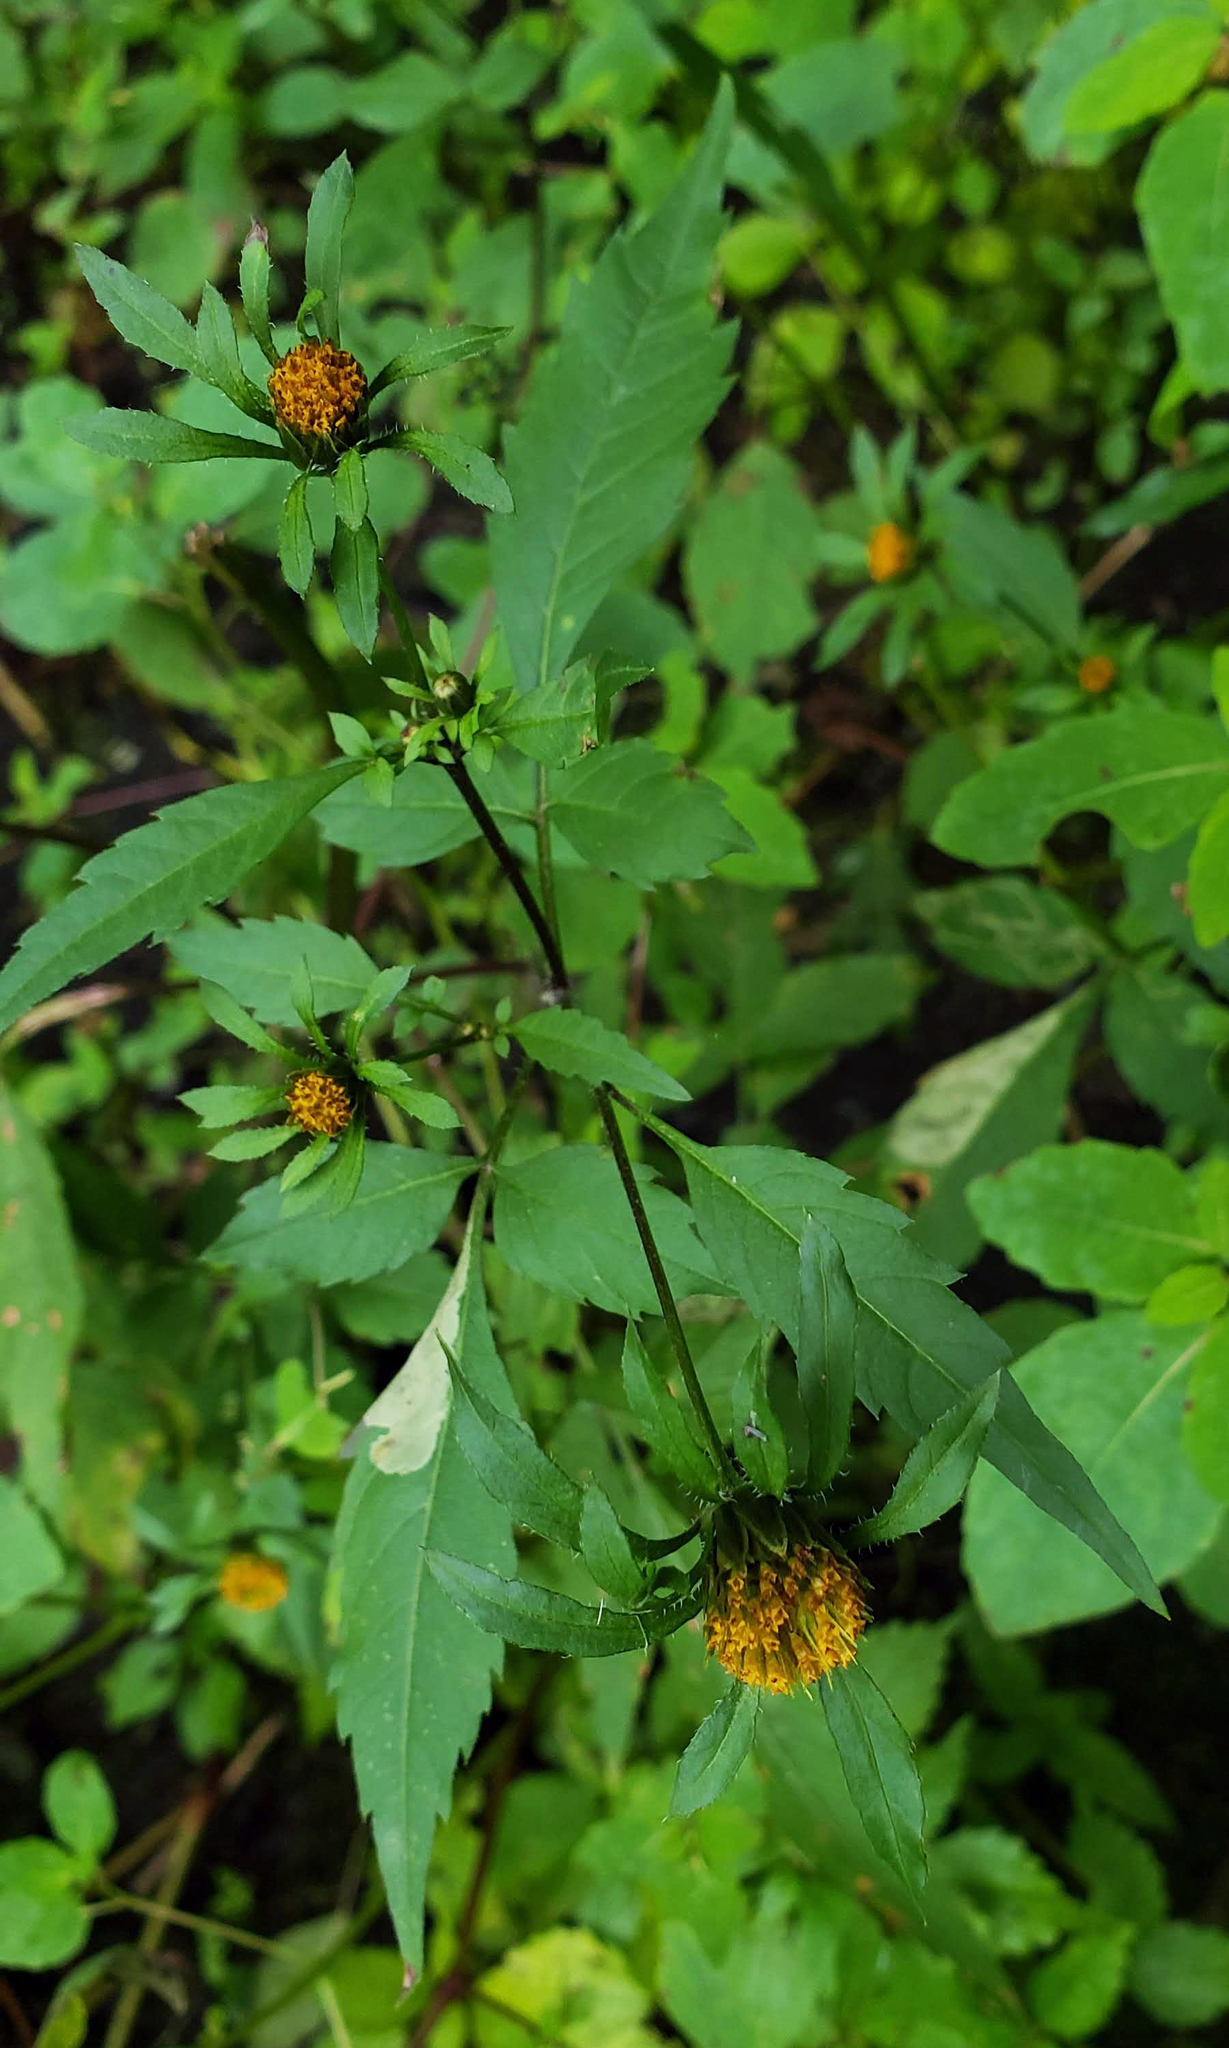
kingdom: Plantae
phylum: Tracheophyta
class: Magnoliopsida
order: Asterales
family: Asteraceae
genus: Bidens
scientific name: Bidens frondosa
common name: Beggarticks
